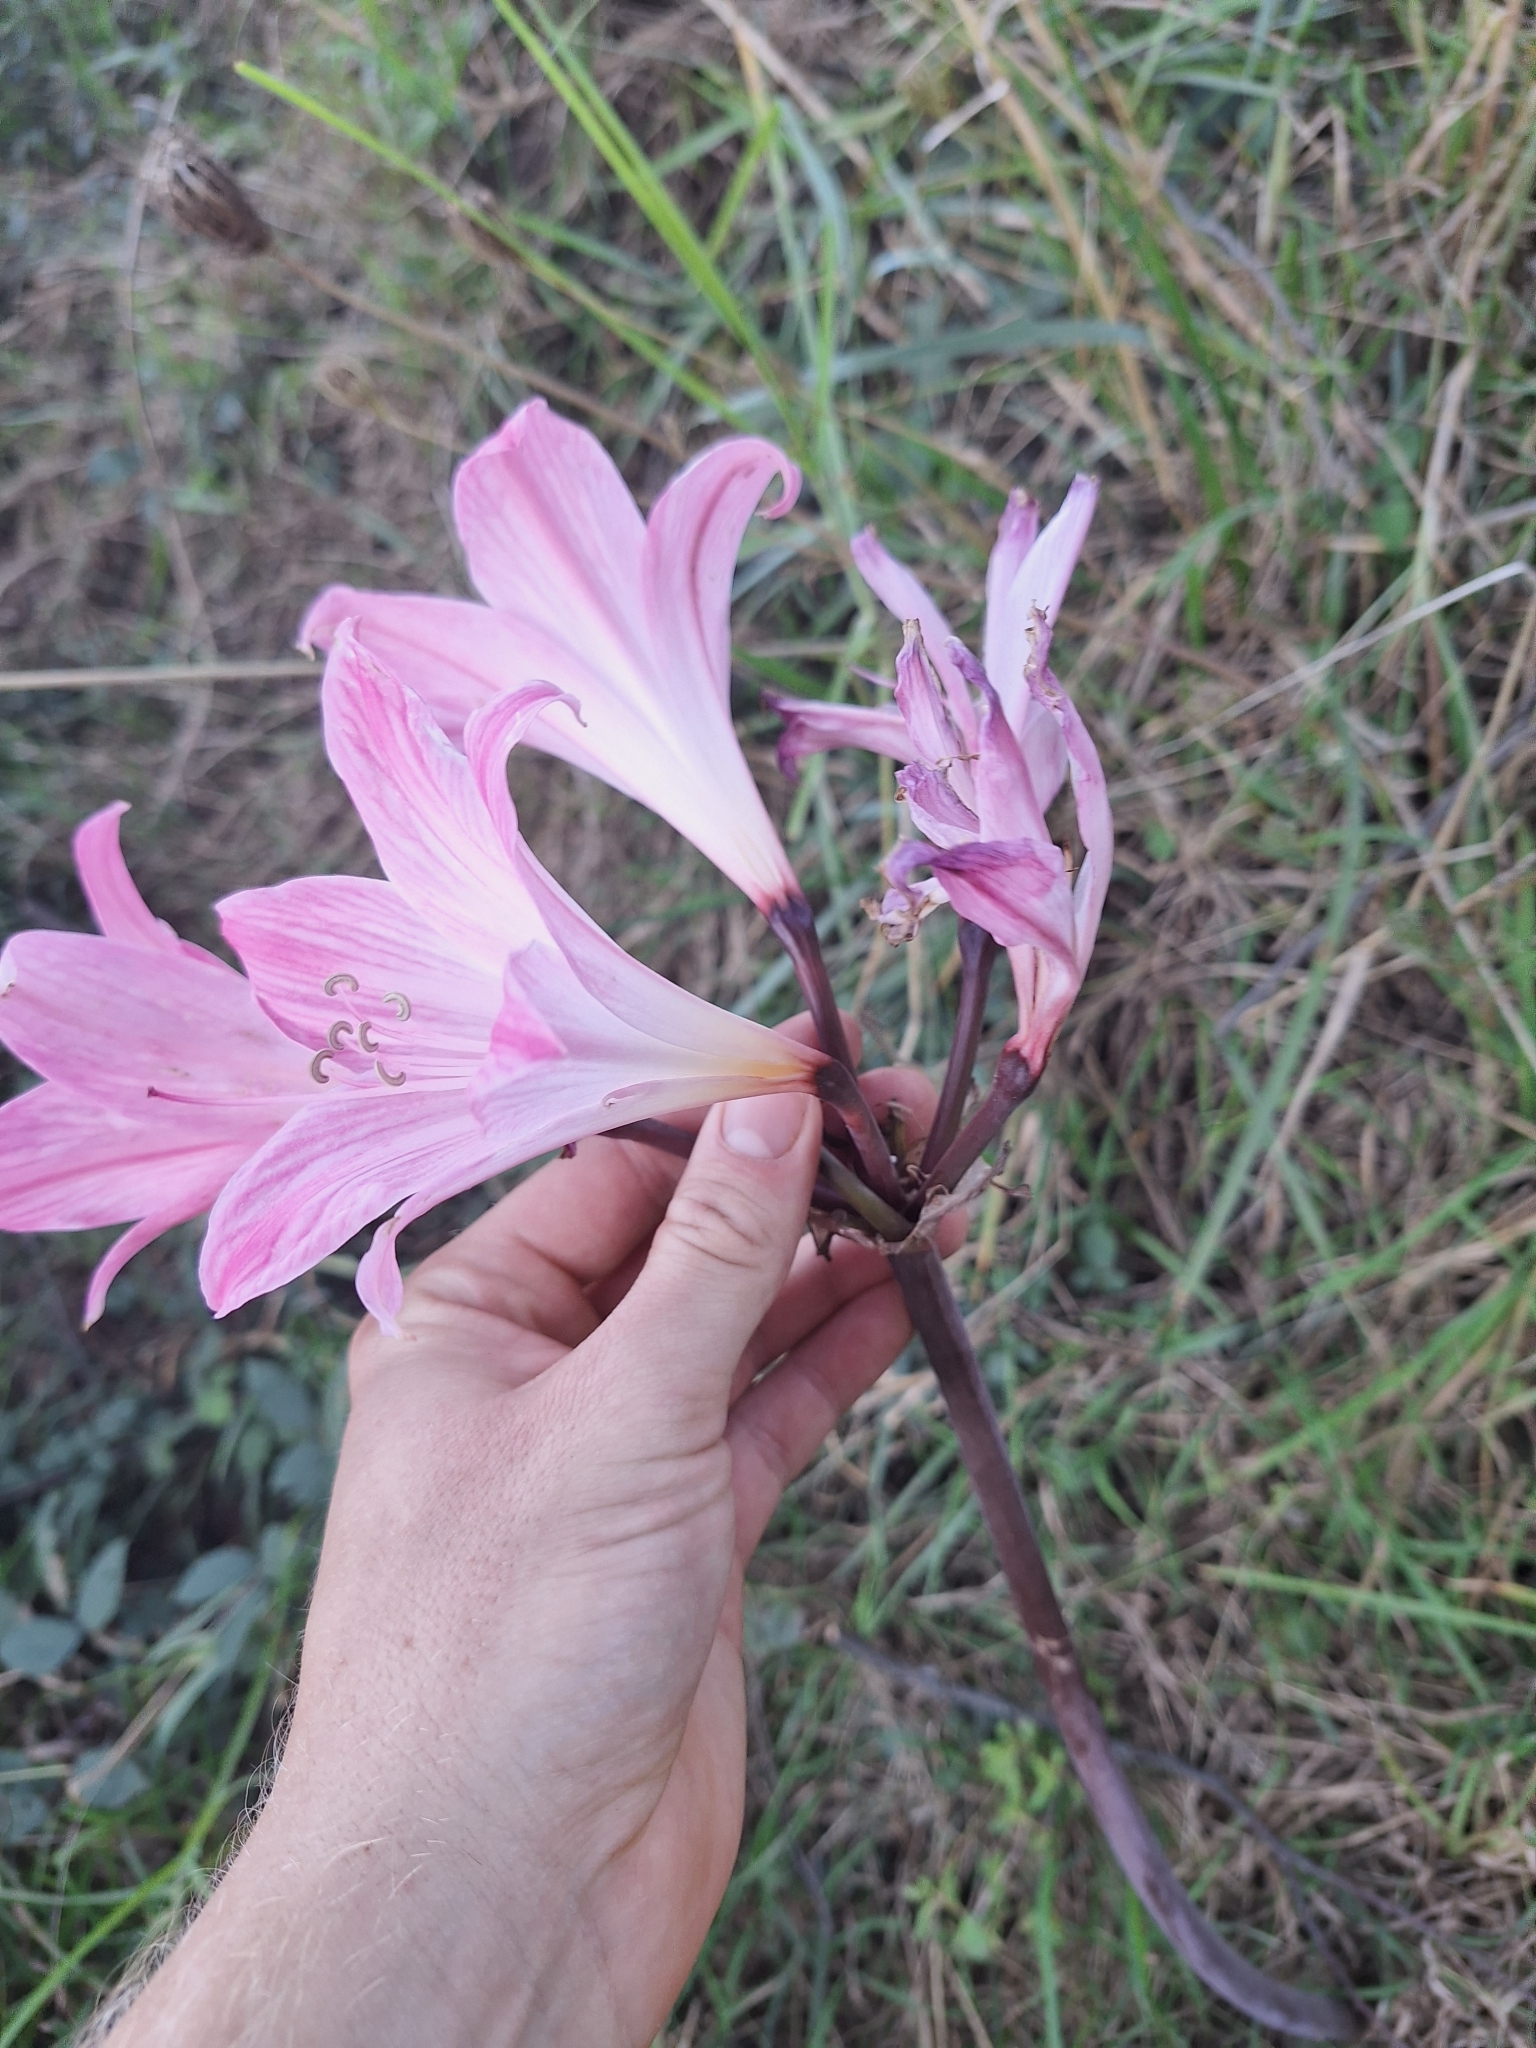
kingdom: Plantae
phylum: Tracheophyta
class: Liliopsida
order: Asparagales
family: Amaryllidaceae
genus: Amaryllis
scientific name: Amaryllis belladonna
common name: Jersey lily
